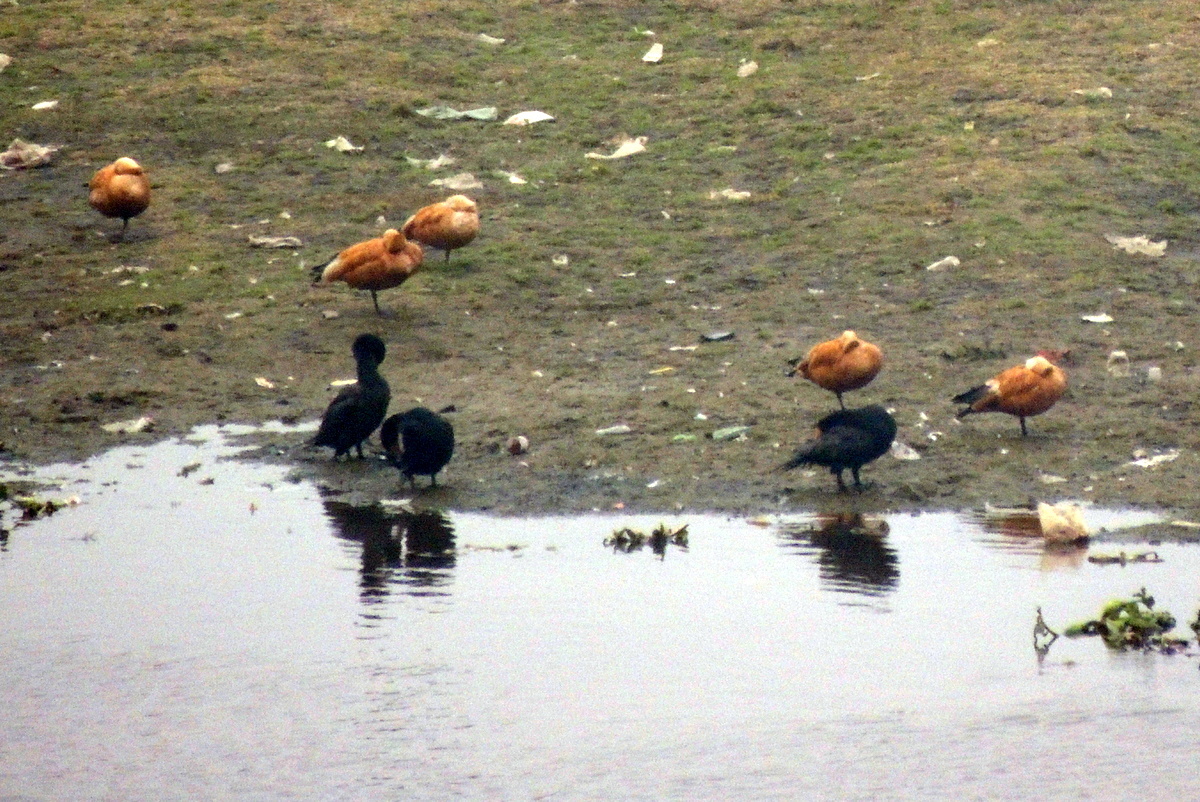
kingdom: Animalia
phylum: Chordata
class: Aves
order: Anseriformes
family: Anatidae
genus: Tadorna
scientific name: Tadorna ferruginea
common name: Ruddy shelduck
